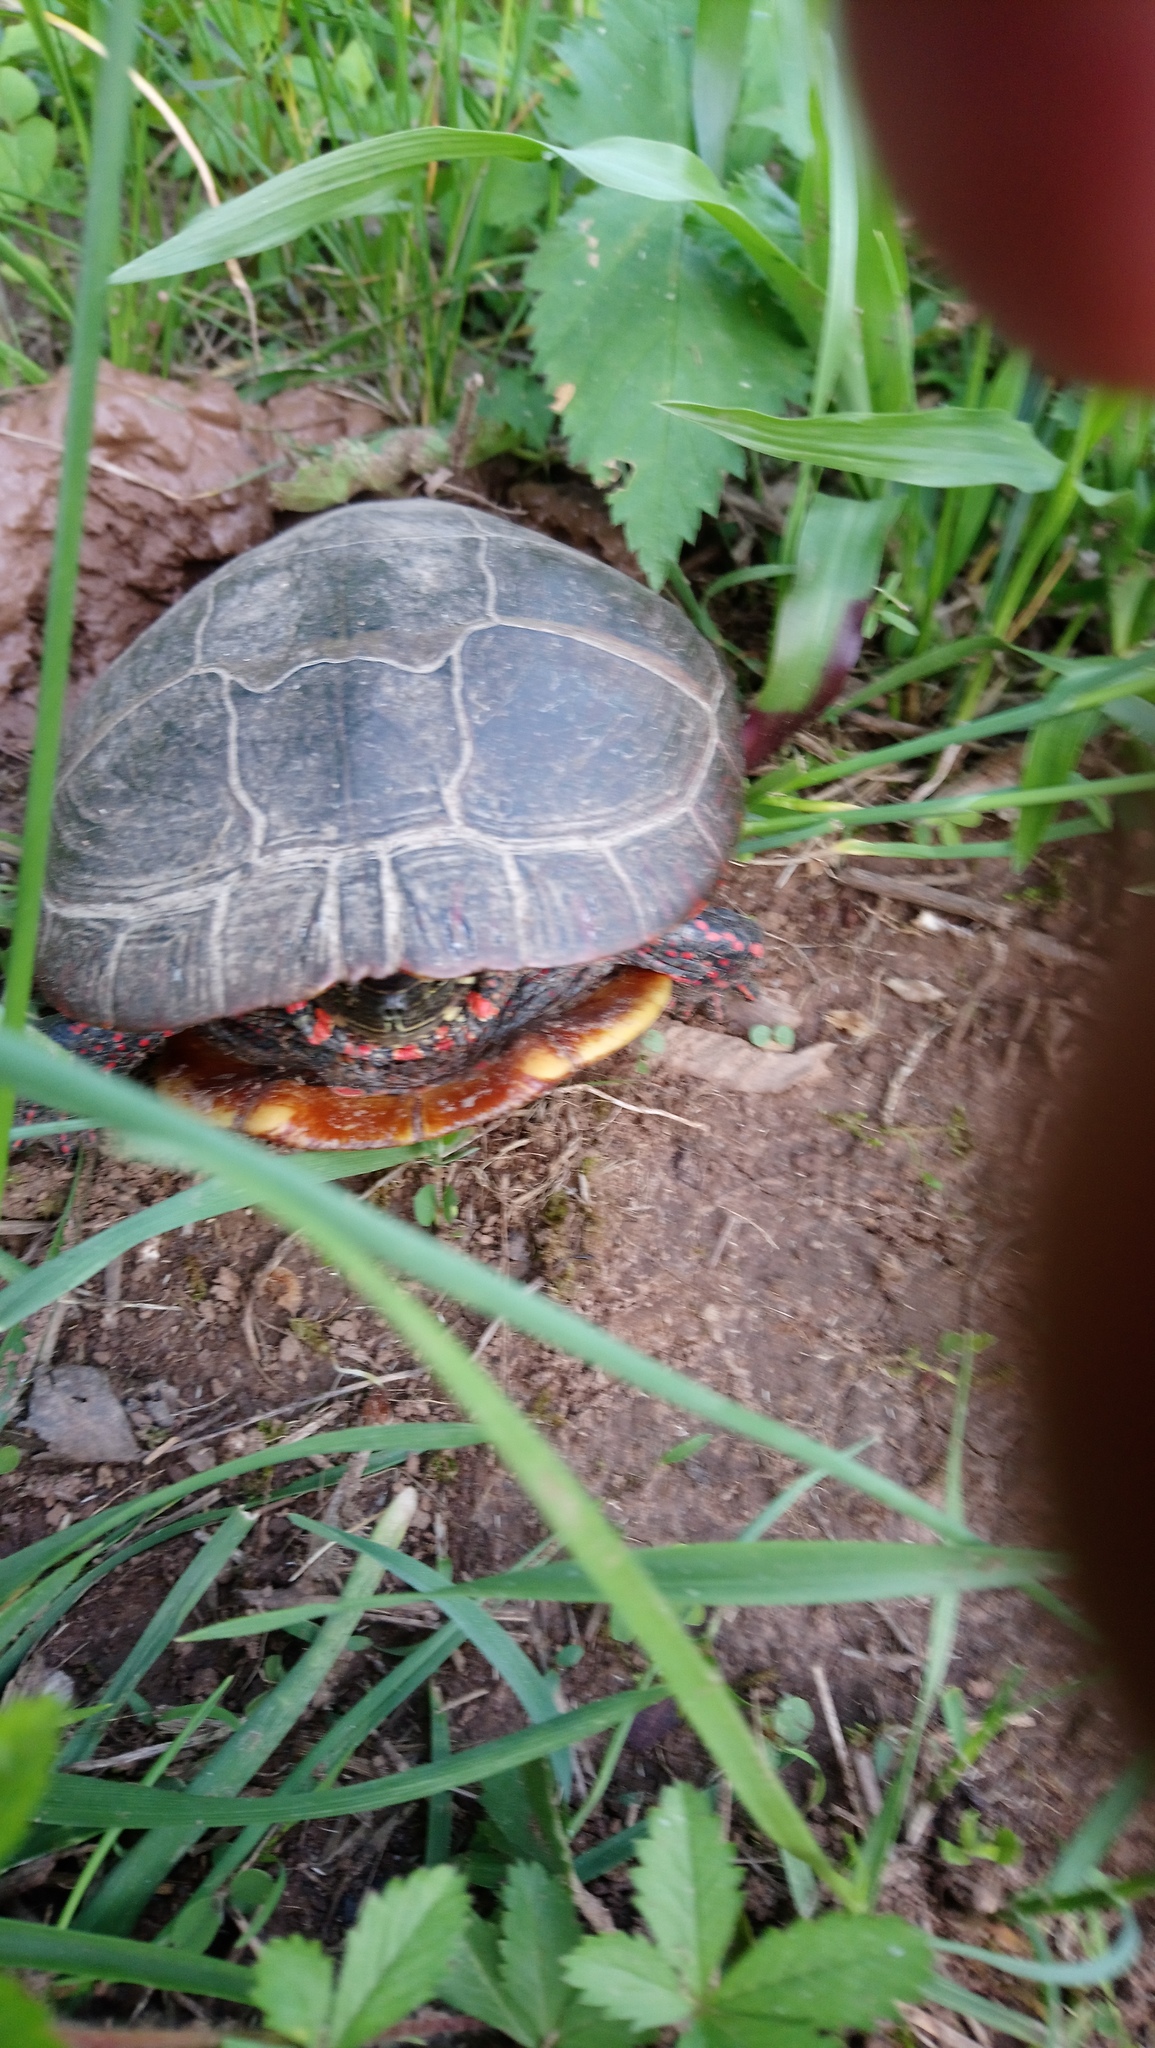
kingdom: Animalia
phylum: Chordata
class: Testudines
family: Emydidae
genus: Chrysemys
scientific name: Chrysemys picta
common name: Painted turtle
